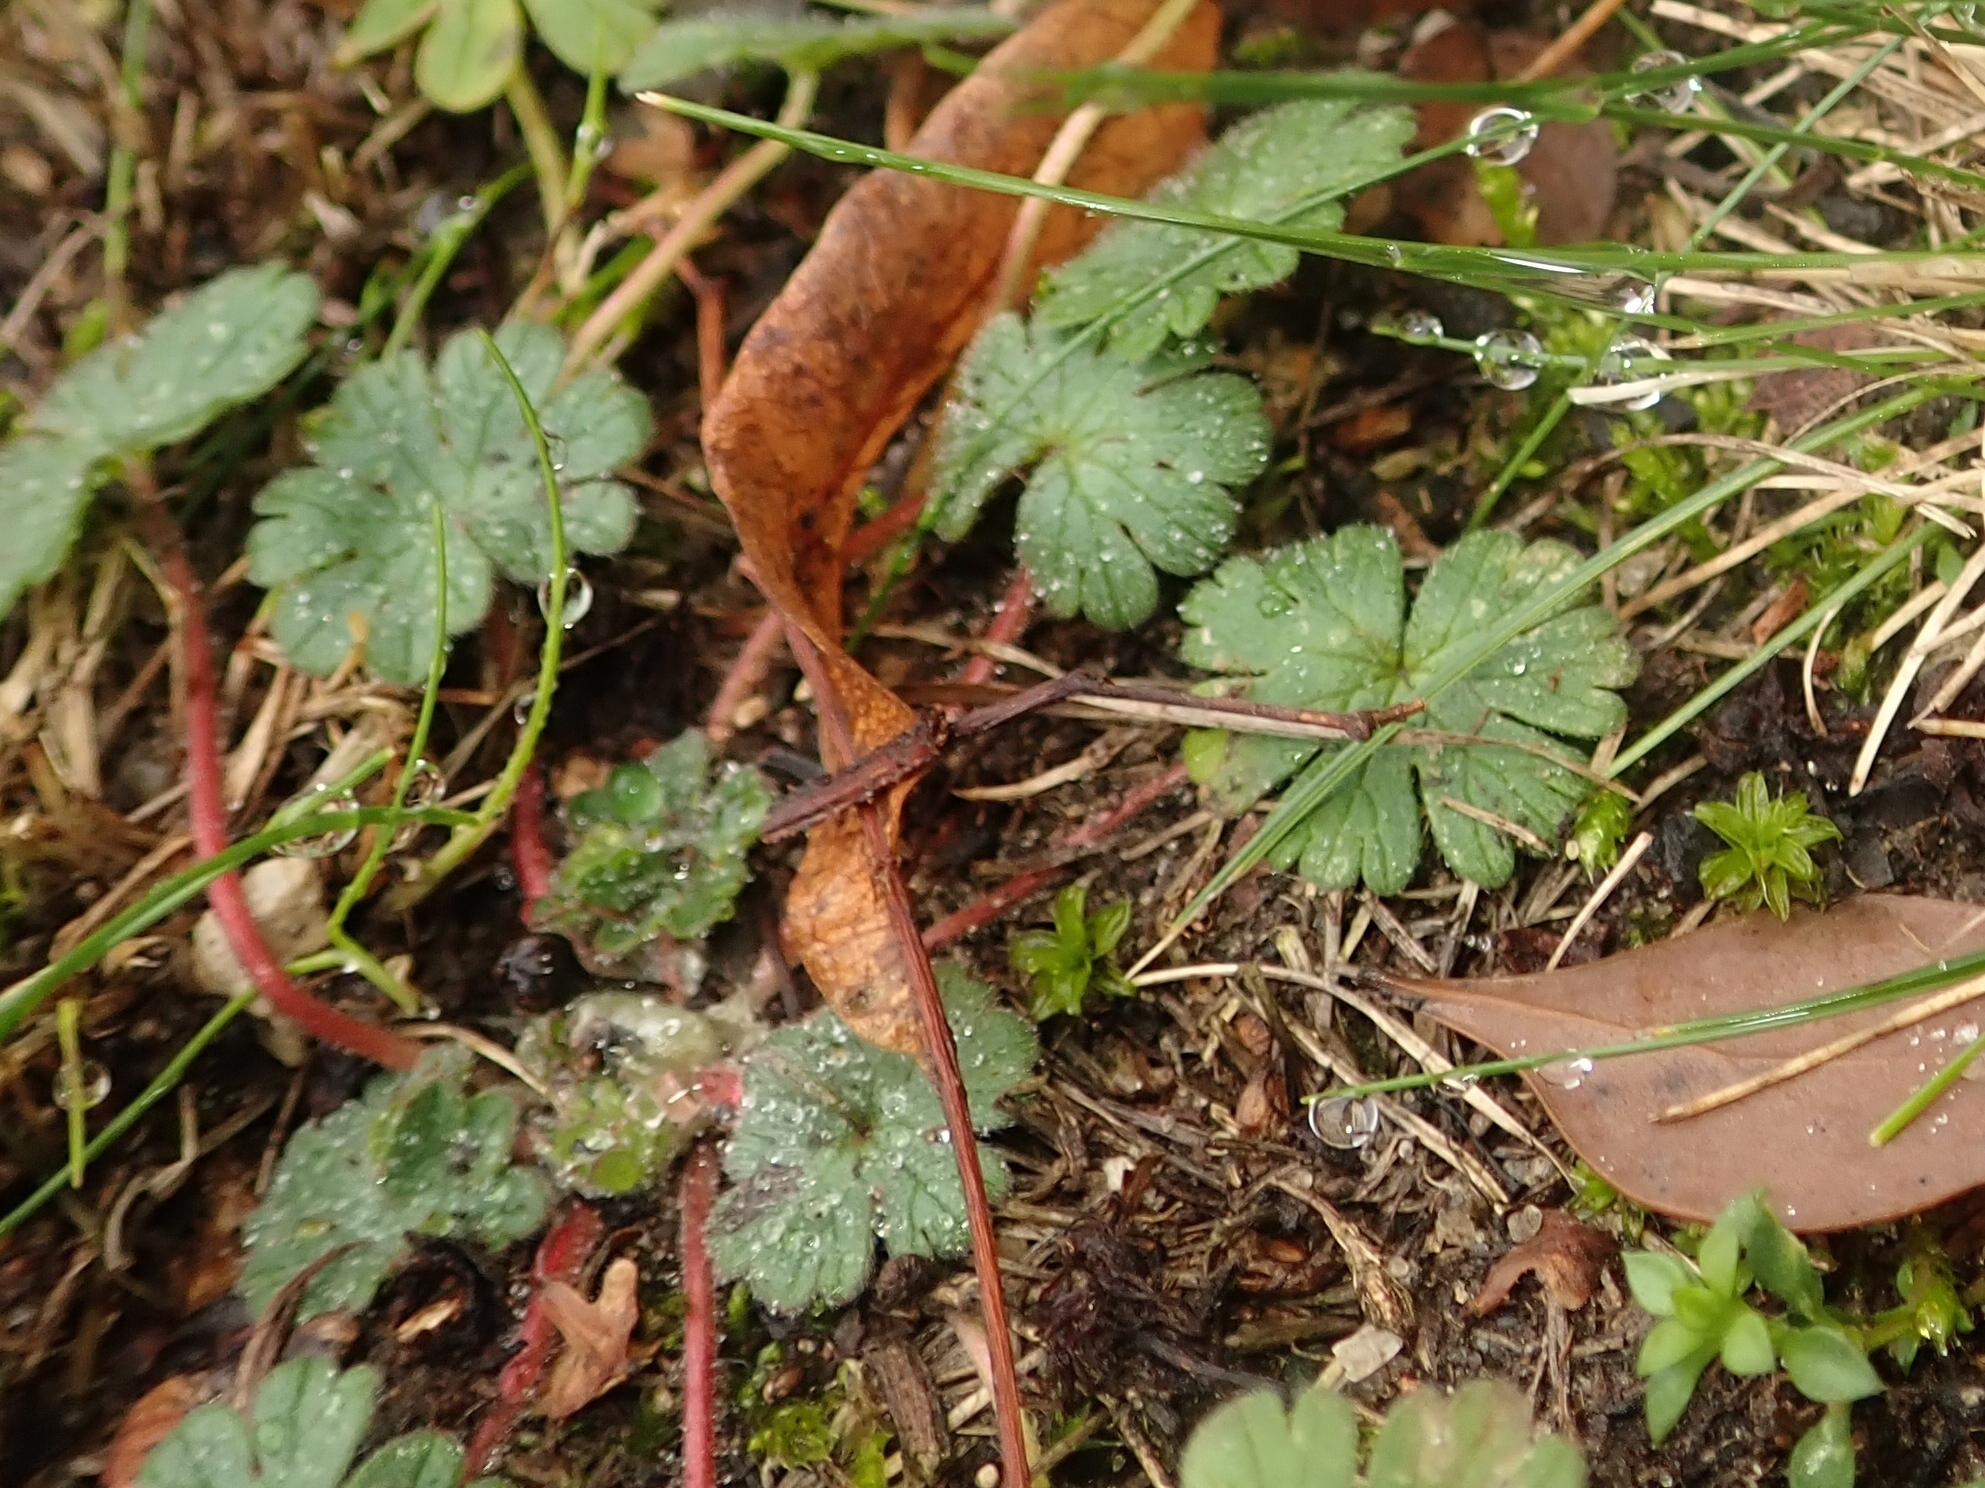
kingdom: Plantae
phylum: Tracheophyta
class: Magnoliopsida
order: Geraniales
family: Geraniaceae
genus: Geranium
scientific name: Geranium molle
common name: Dove's-foot crane's-bill
